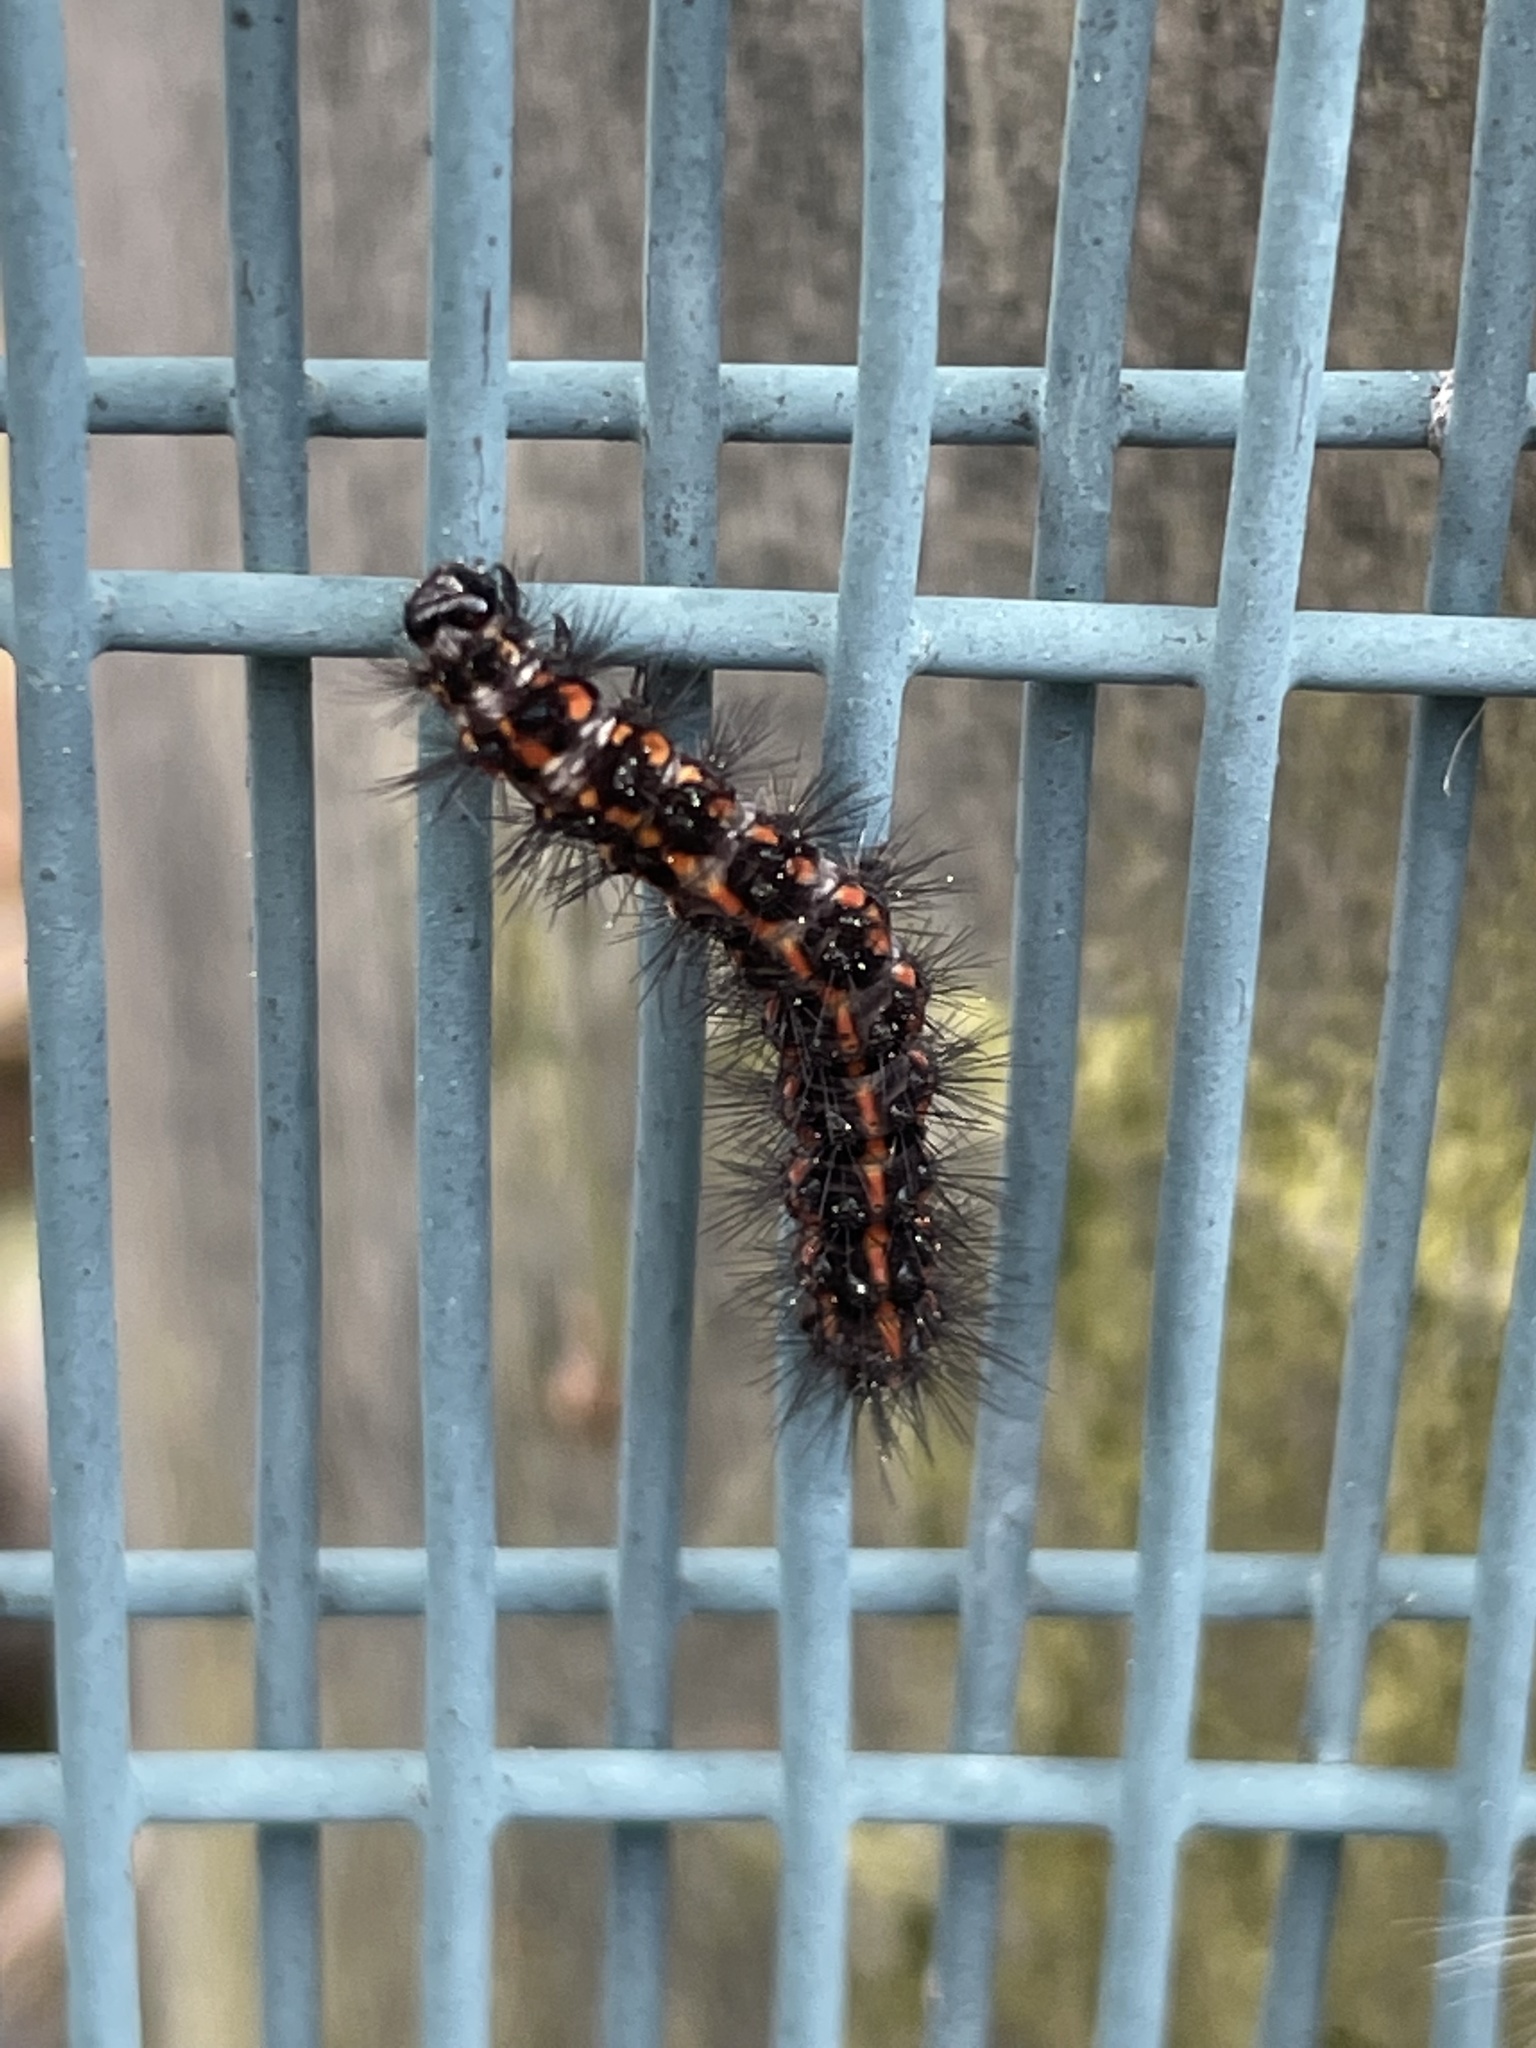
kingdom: Animalia
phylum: Arthropoda
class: Insecta
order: Lepidoptera
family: Erebidae
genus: Nyctemera
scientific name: Nyctemera annulatum
